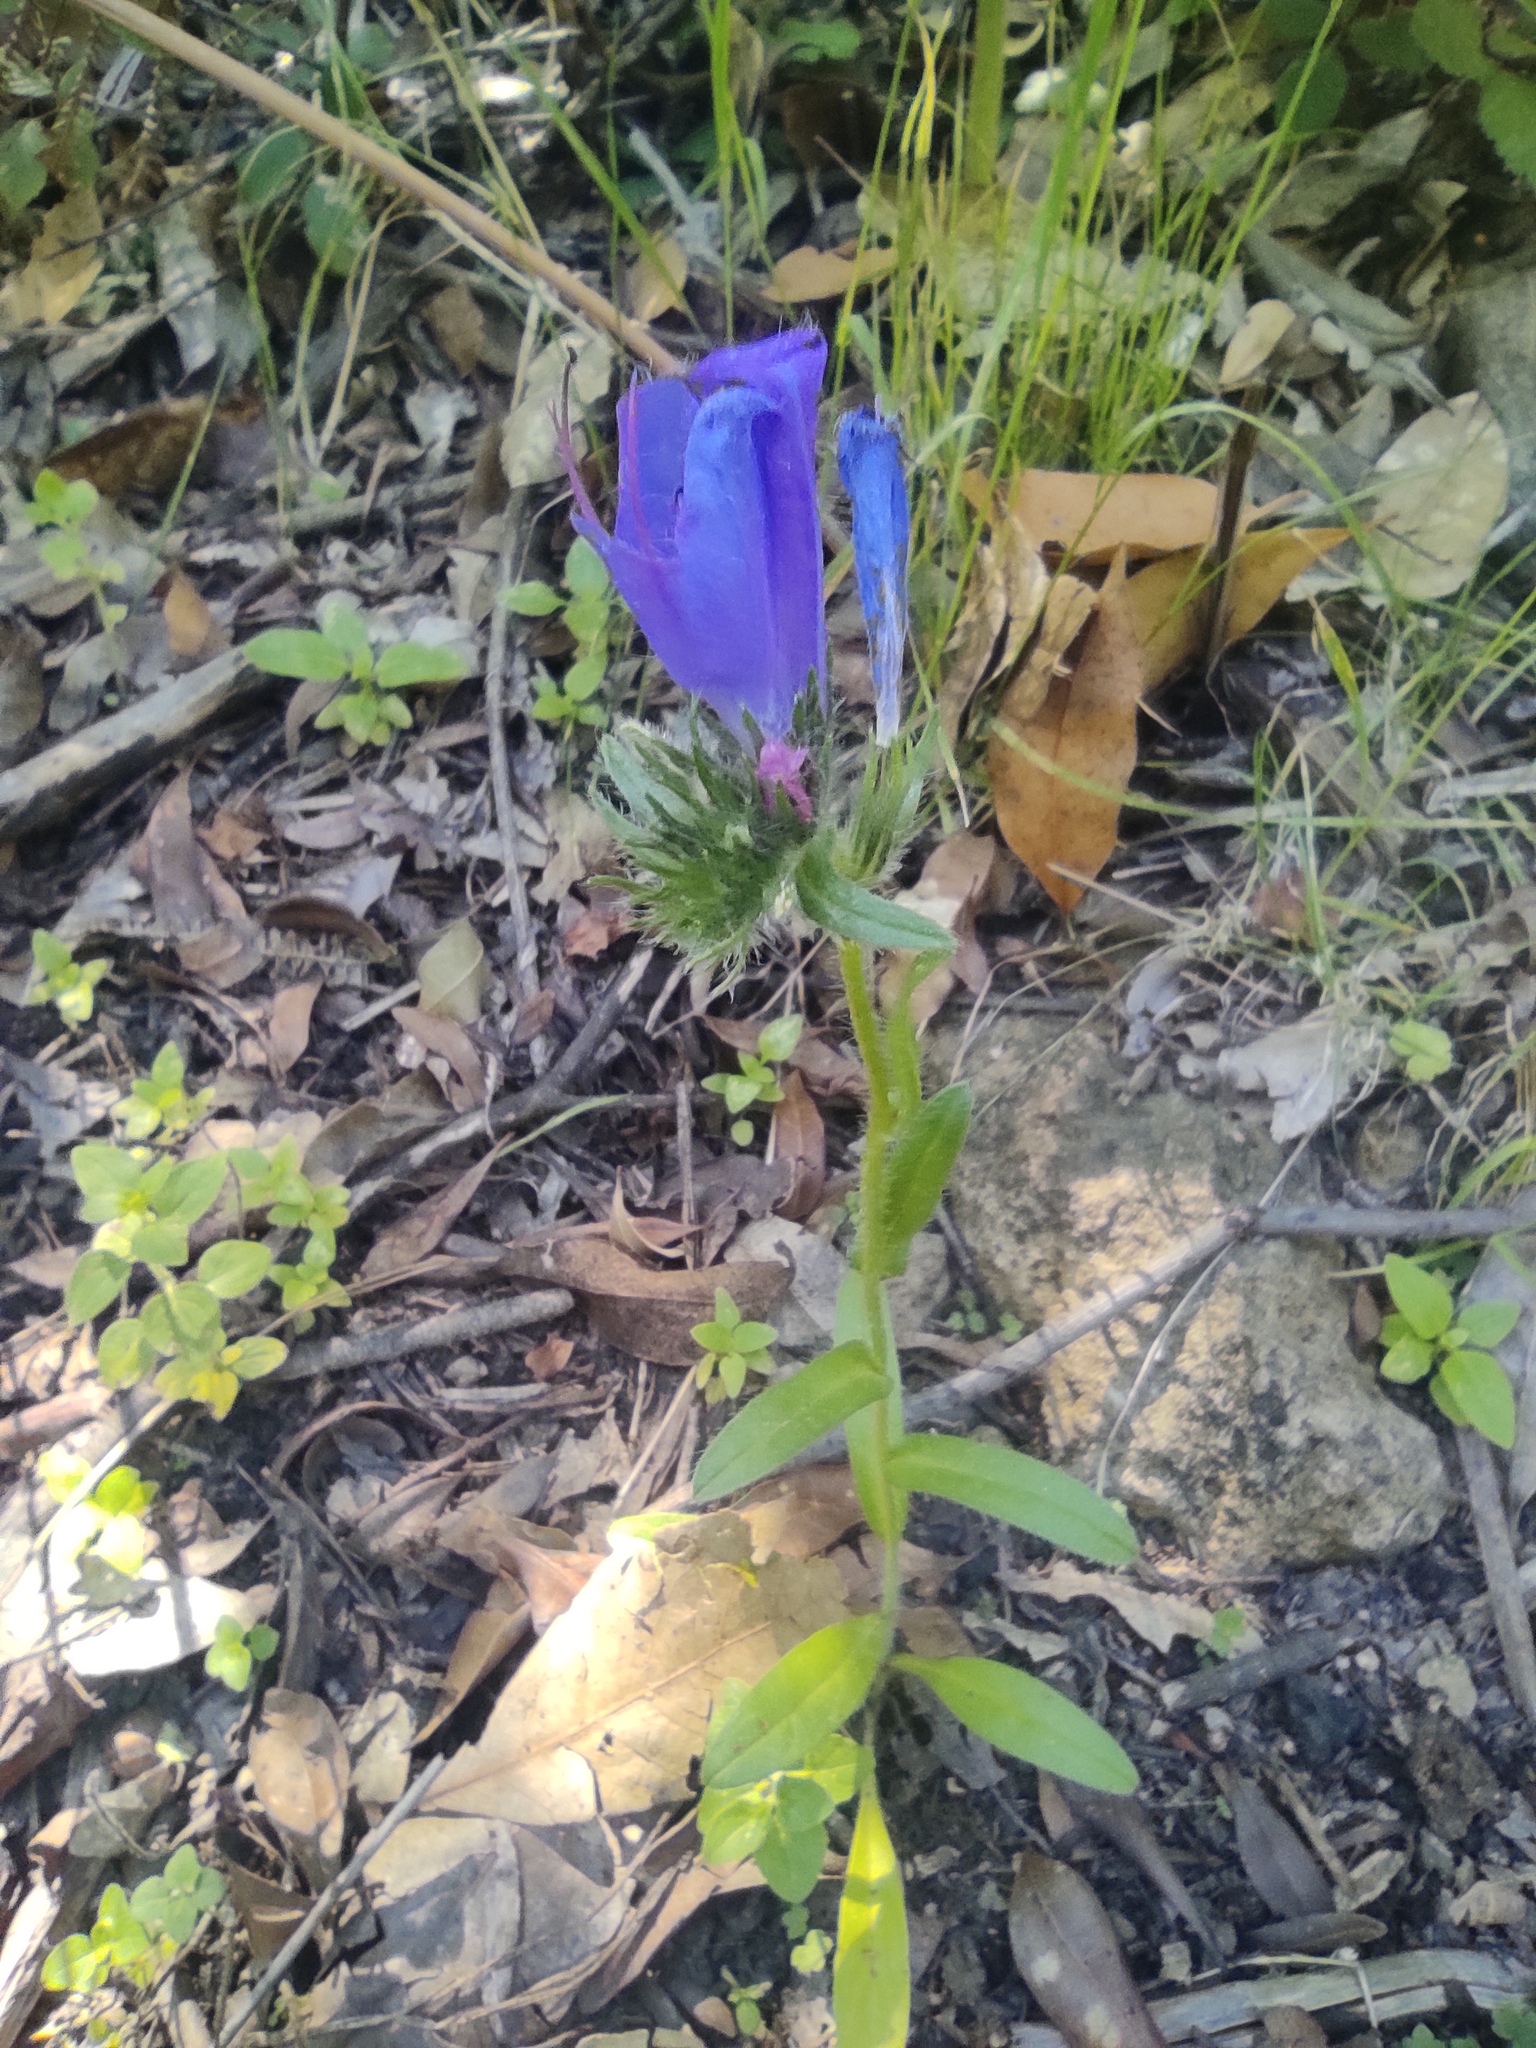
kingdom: Plantae
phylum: Tracheophyta
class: Magnoliopsida
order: Boraginales
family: Boraginaceae
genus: Echium
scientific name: Echium plantagineum
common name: Purple viper's-bugloss
